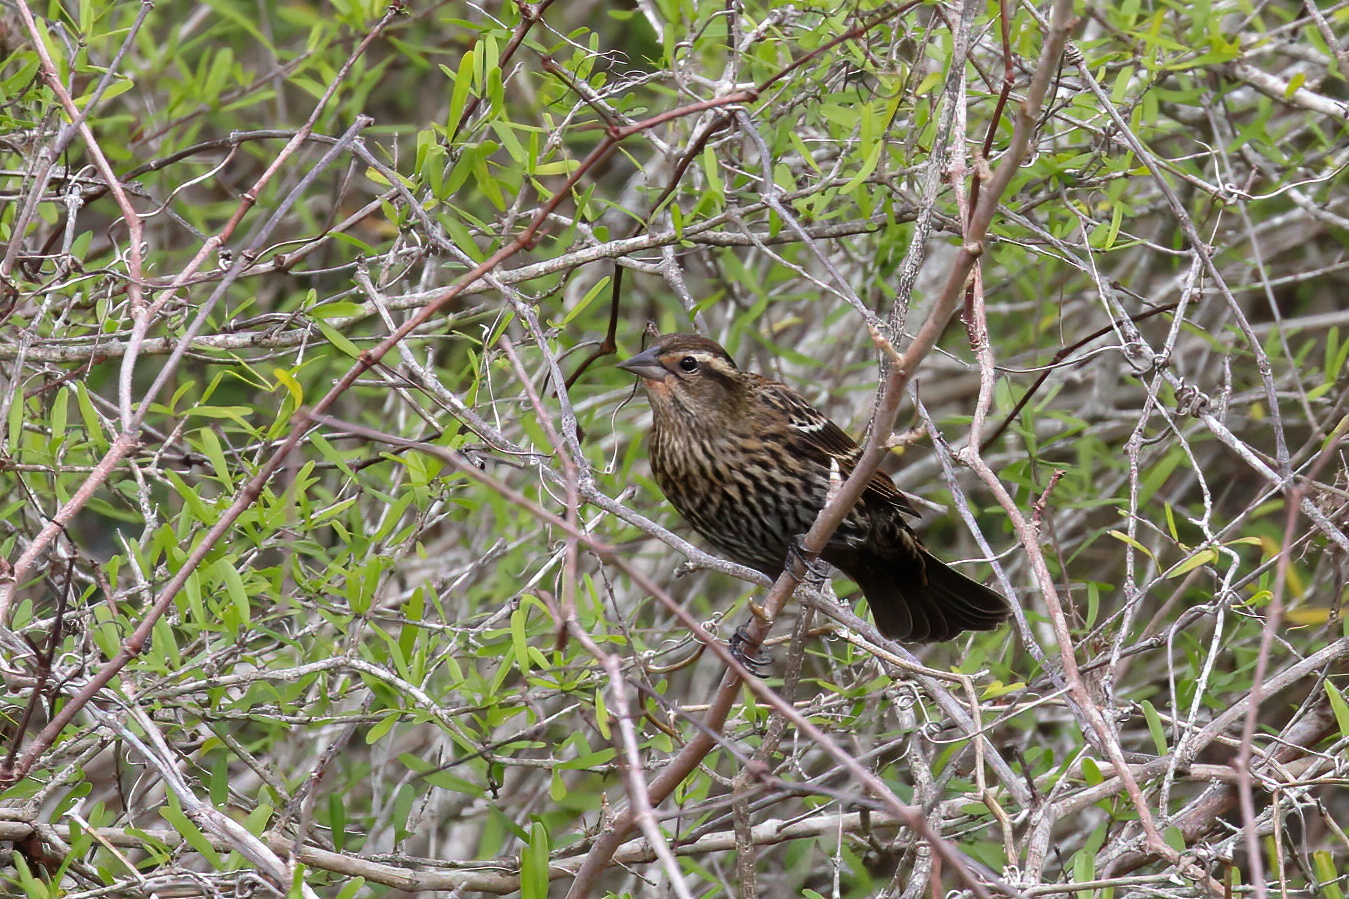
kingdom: Animalia
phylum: Chordata
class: Aves
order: Passeriformes
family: Icteridae
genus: Agelaius
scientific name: Agelaius phoeniceus
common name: Red-winged blackbird
